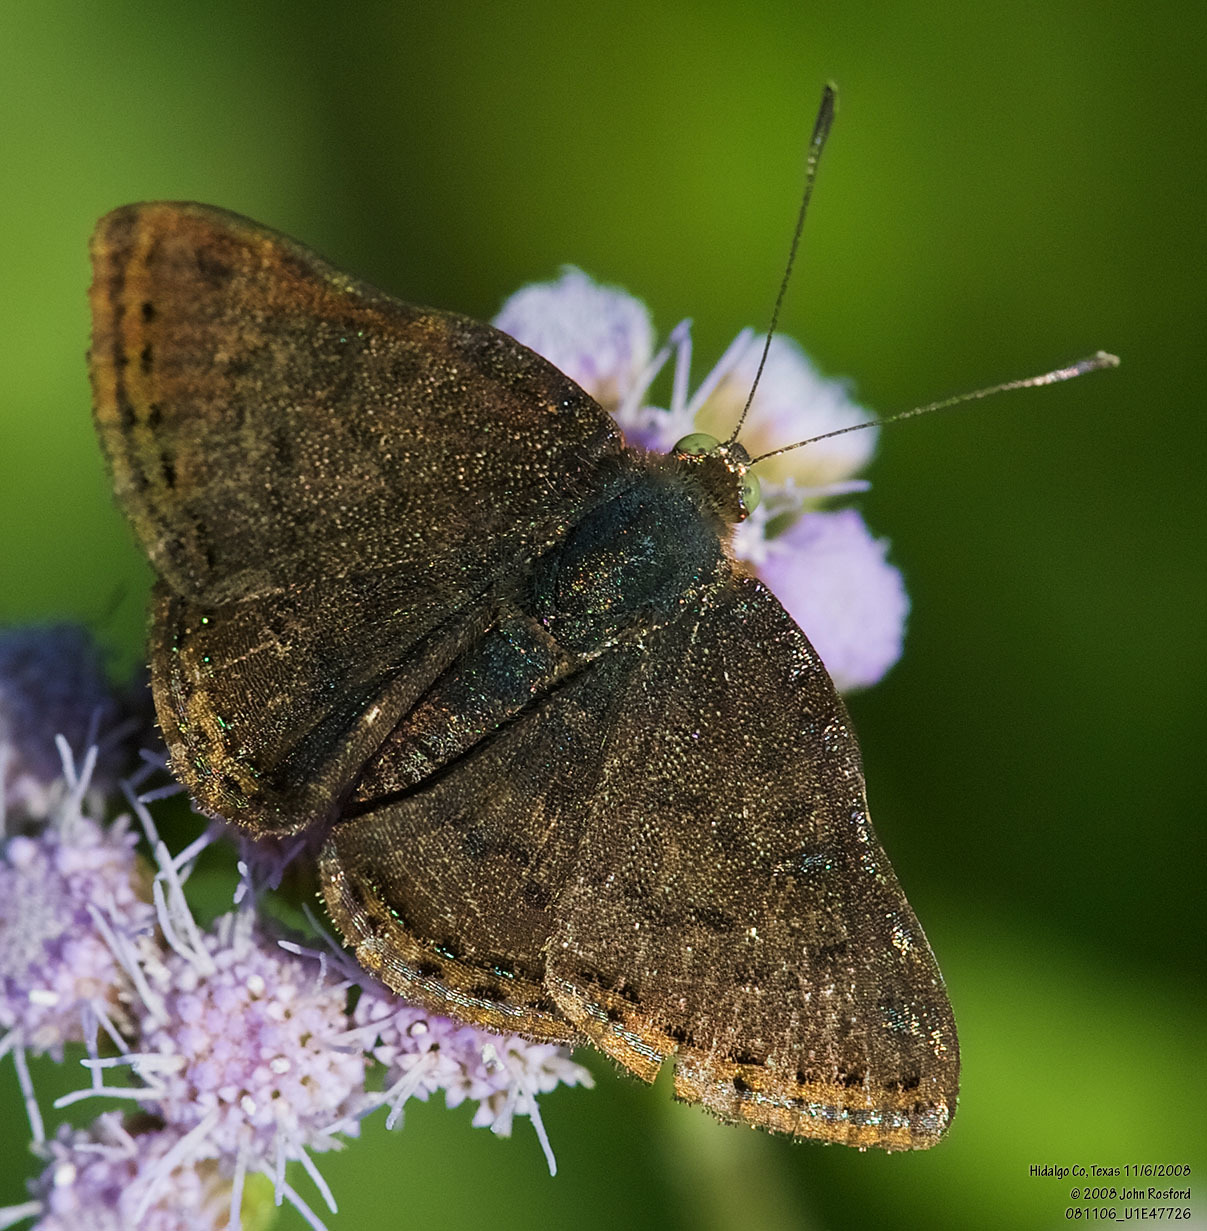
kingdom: Animalia
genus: Caria
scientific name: Caria ino
